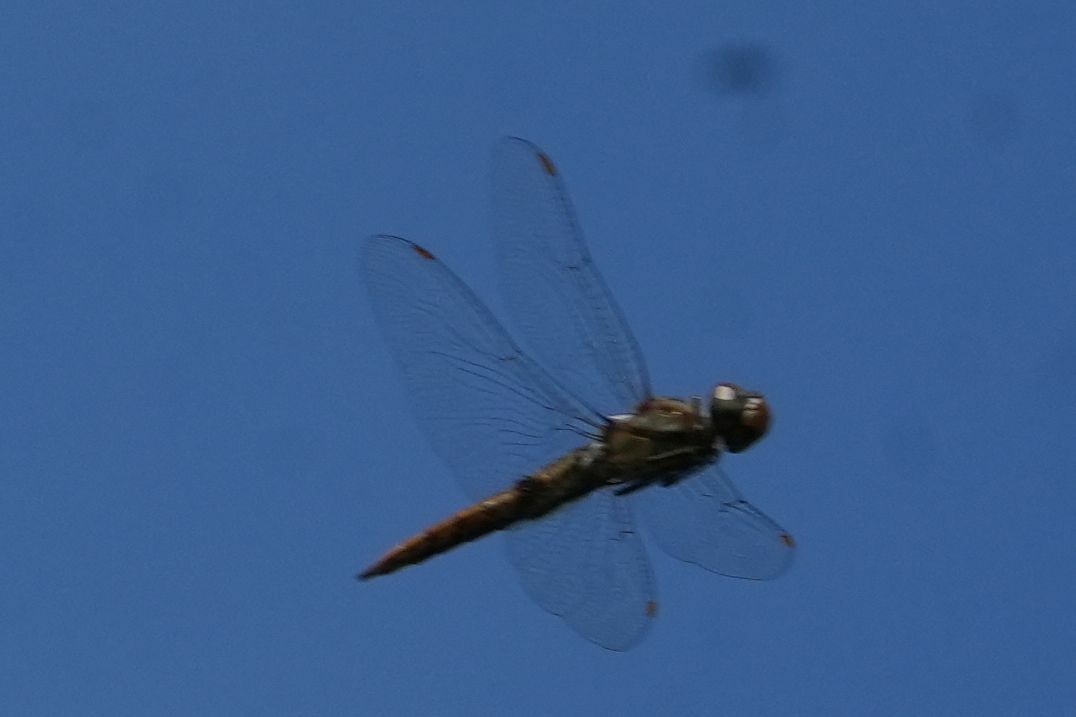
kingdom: Animalia
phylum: Arthropoda
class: Insecta
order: Odonata
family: Libellulidae
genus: Pantala
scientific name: Pantala hymenaea
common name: Spot-winged glider
